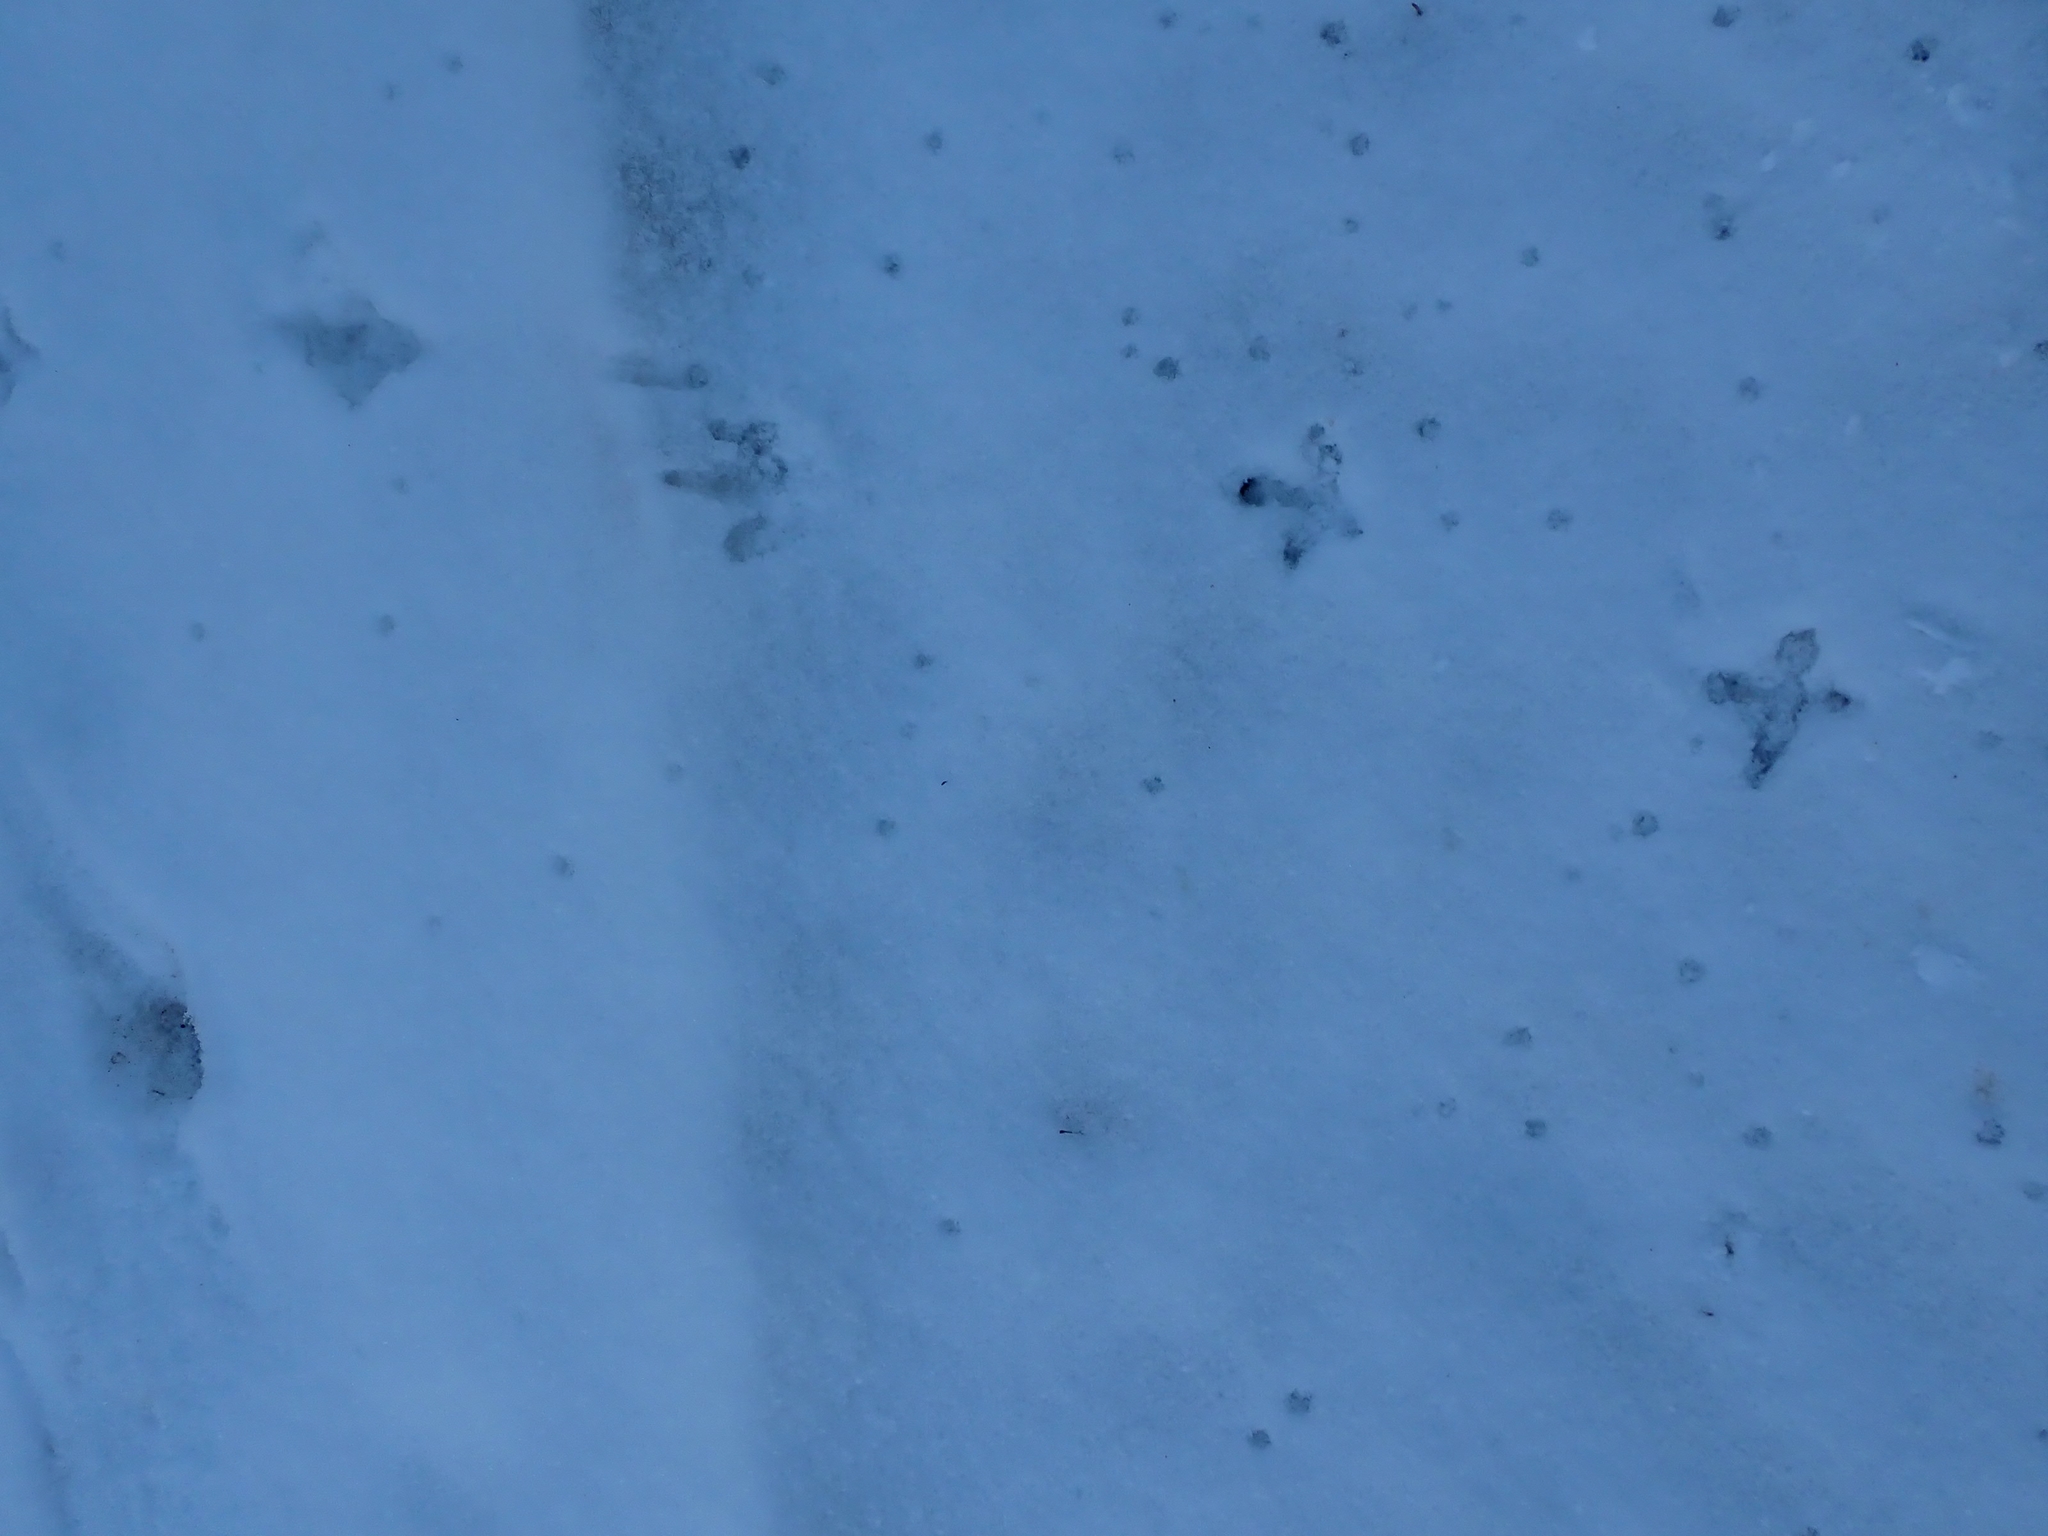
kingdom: Animalia
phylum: Chordata
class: Aves
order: Galliformes
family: Phasianidae
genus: Bonasa
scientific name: Bonasa umbellus
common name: Ruffed grouse
